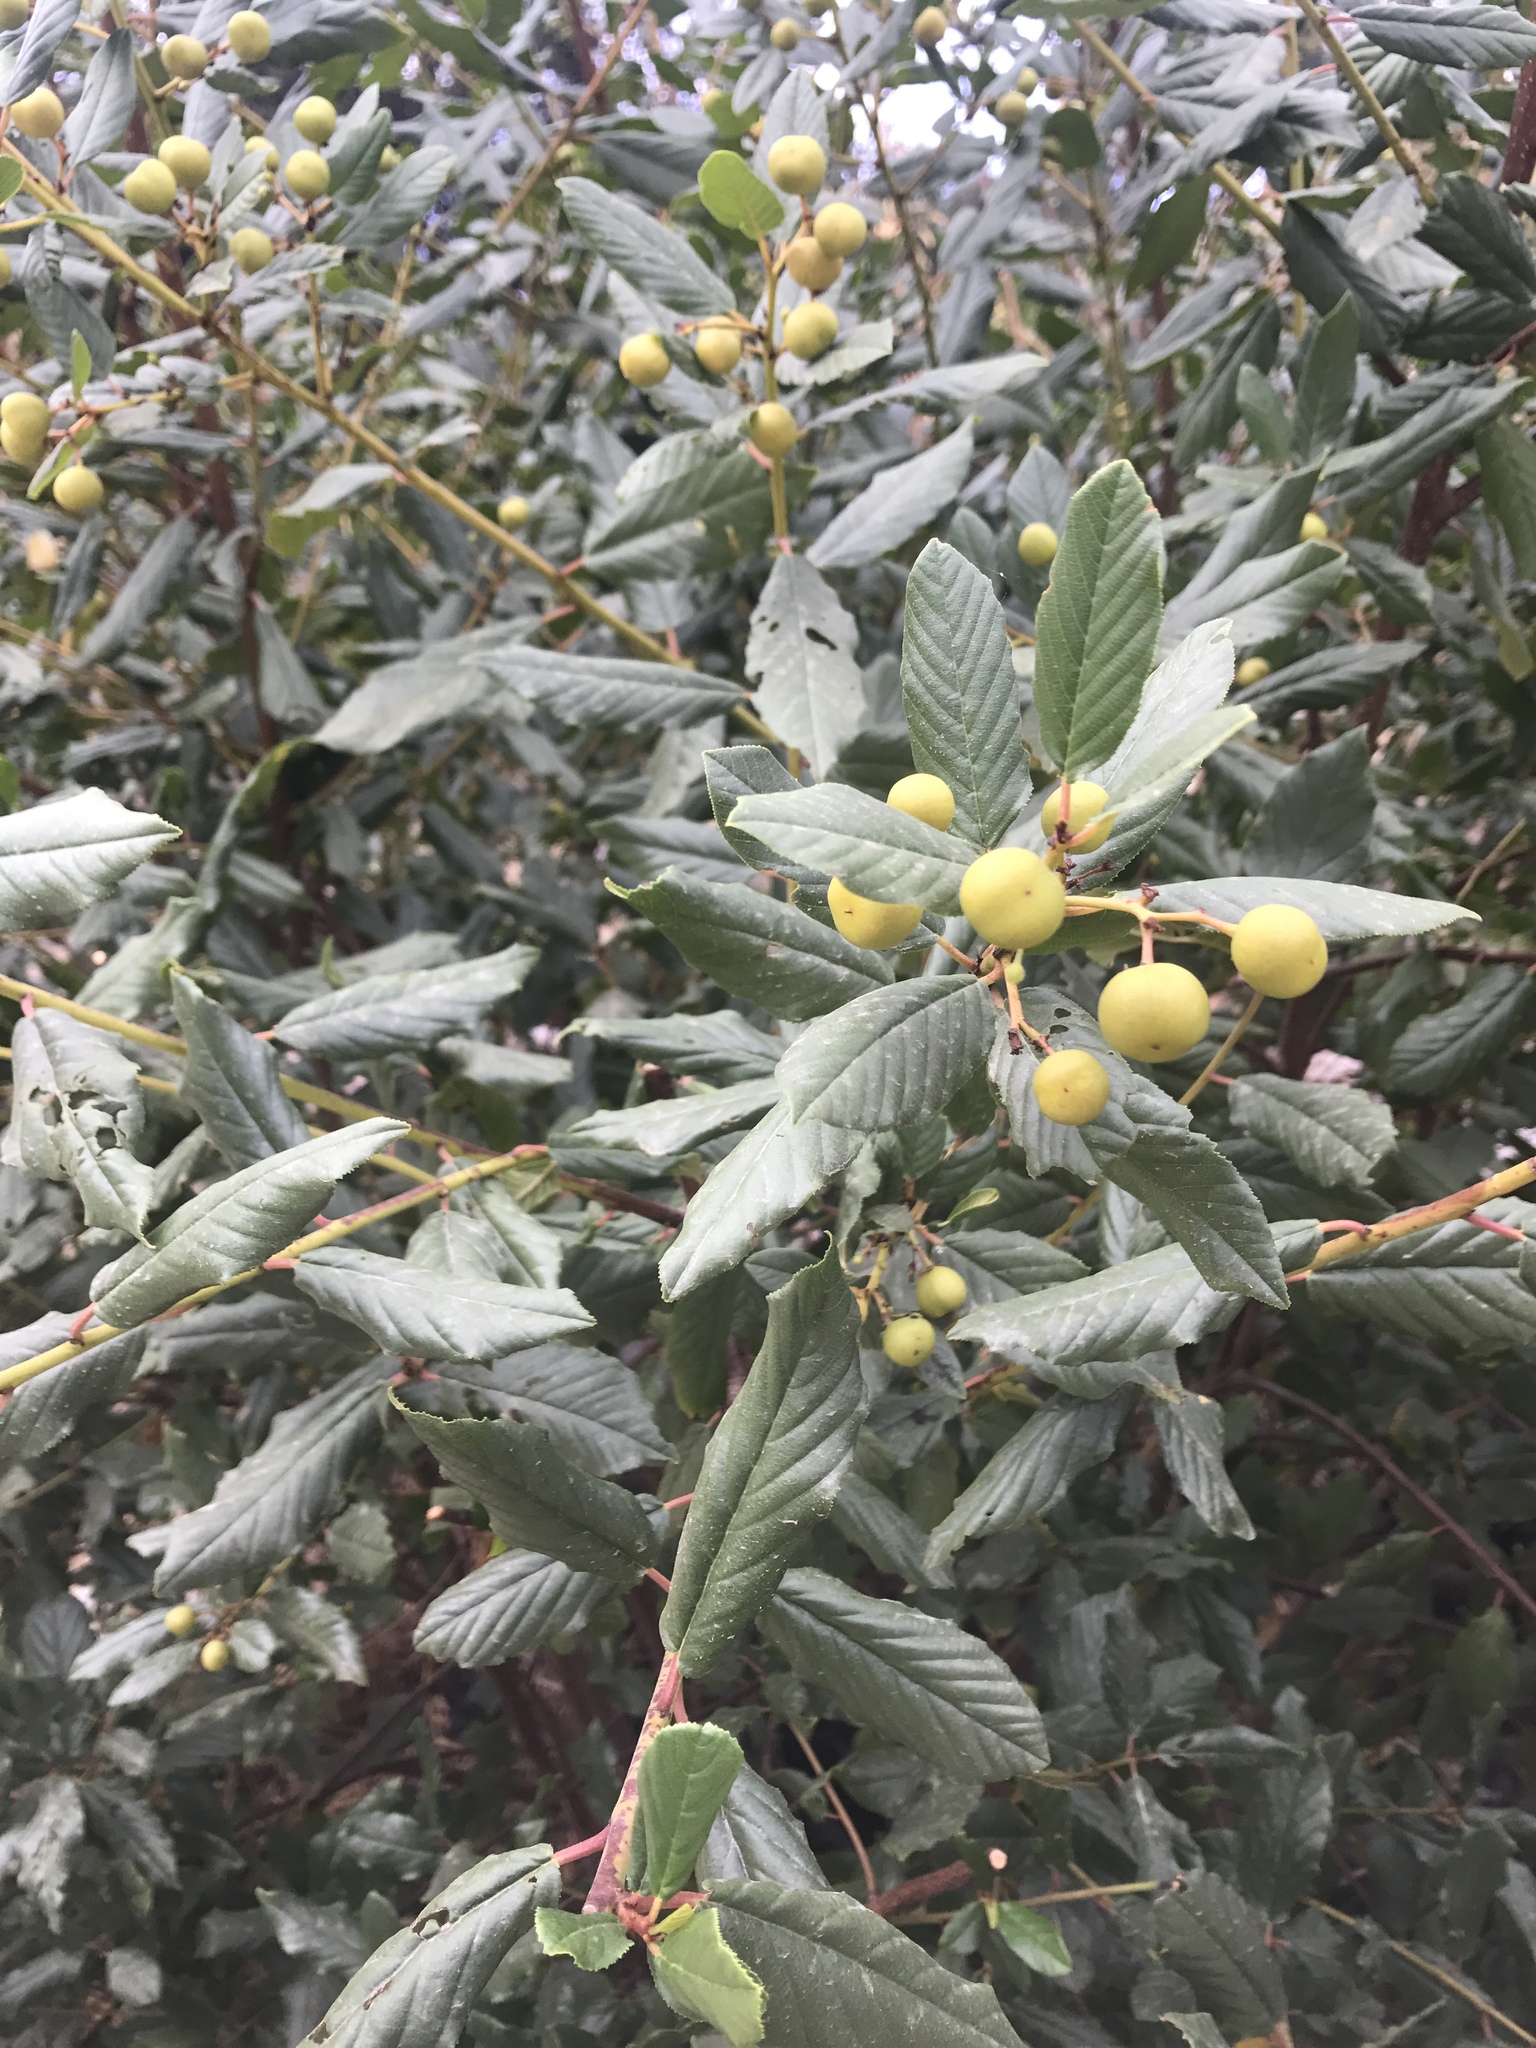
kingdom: Plantae
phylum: Tracheophyta
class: Magnoliopsida
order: Rosales
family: Rhamnaceae
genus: Frangula
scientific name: Frangula californica
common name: California buckthorn
